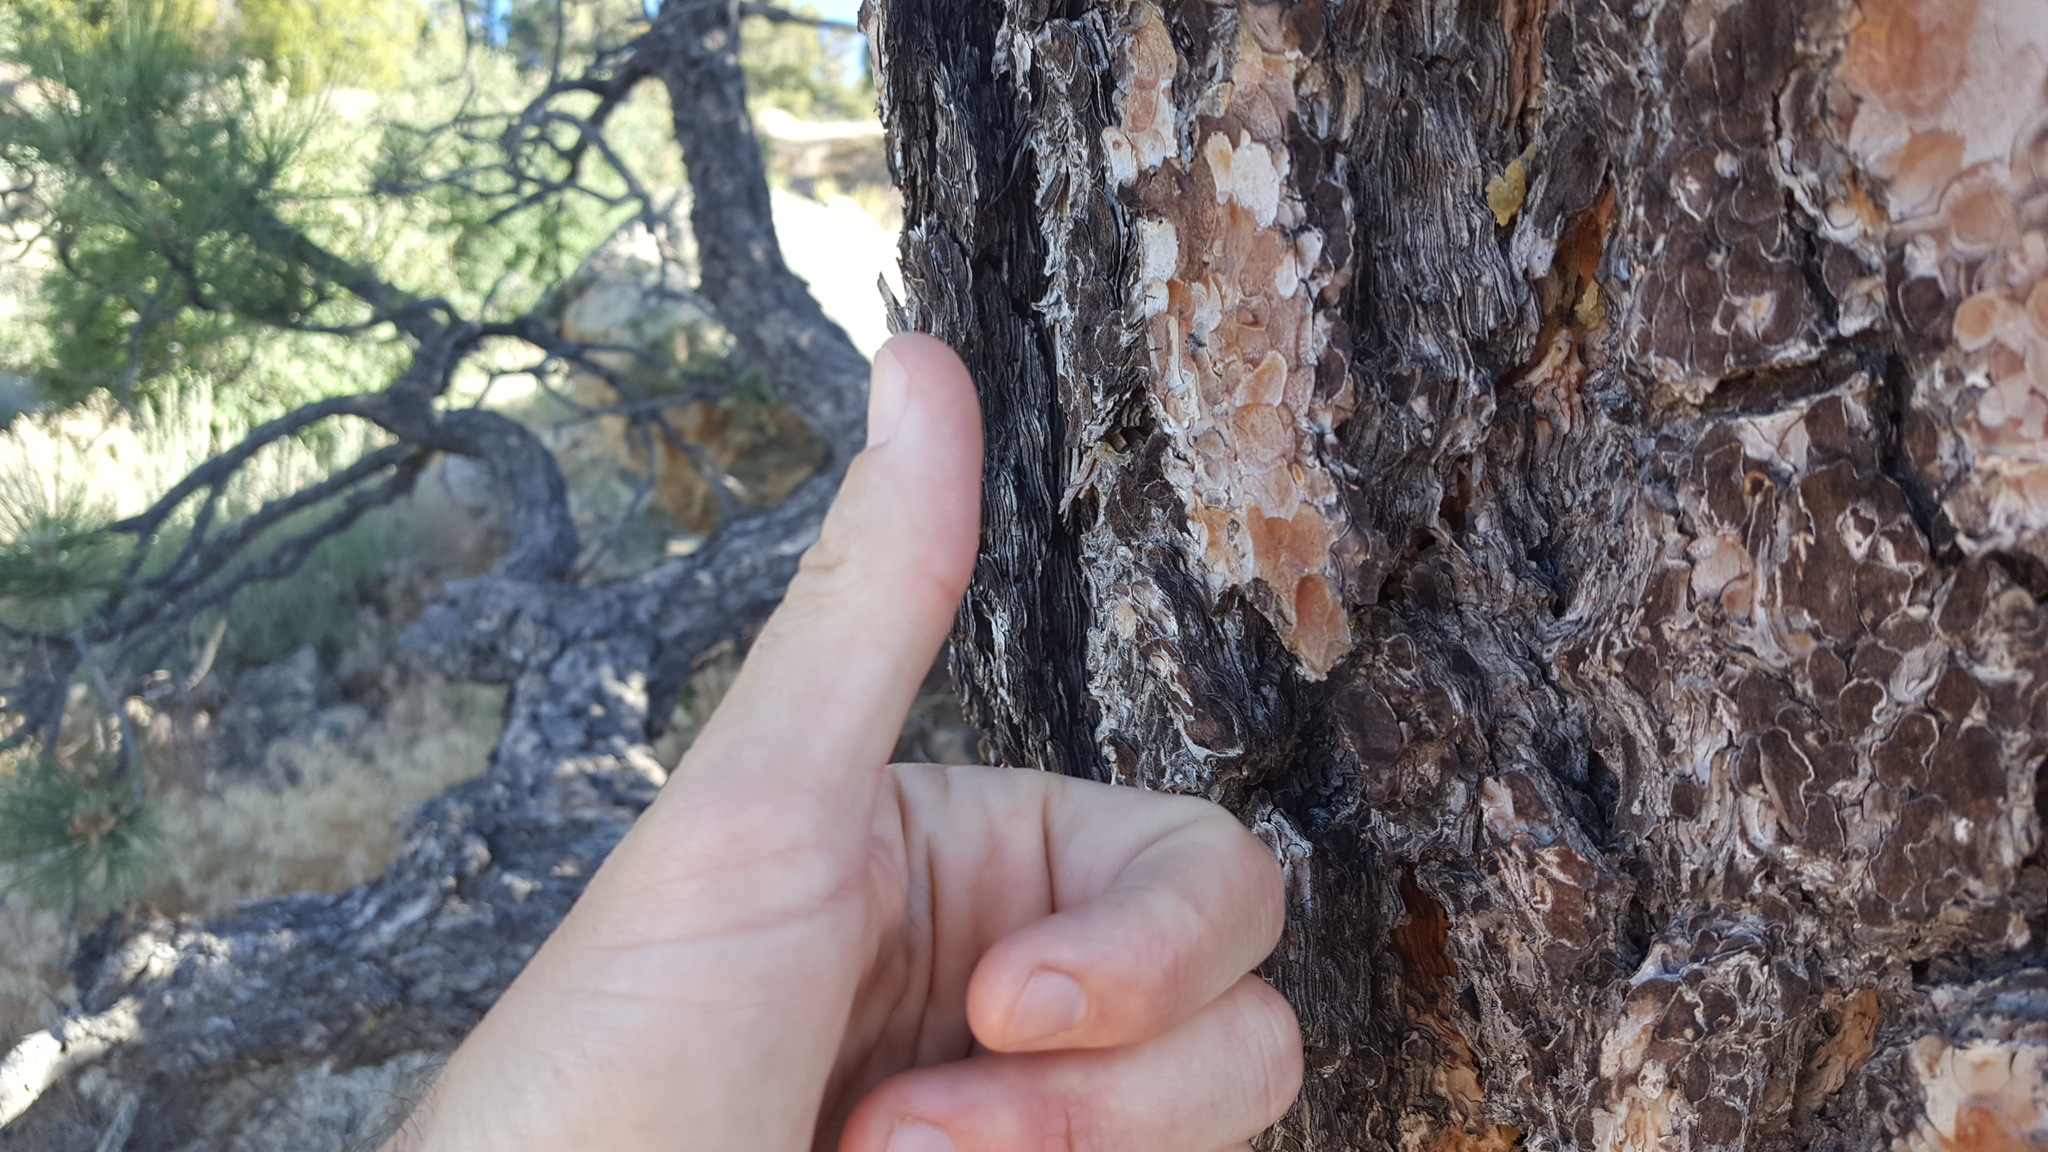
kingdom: Plantae
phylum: Tracheophyta
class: Pinopsida
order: Pinales
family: Pinaceae
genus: Pinus
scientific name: Pinus jeffreyi
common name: Jeffrey pine
